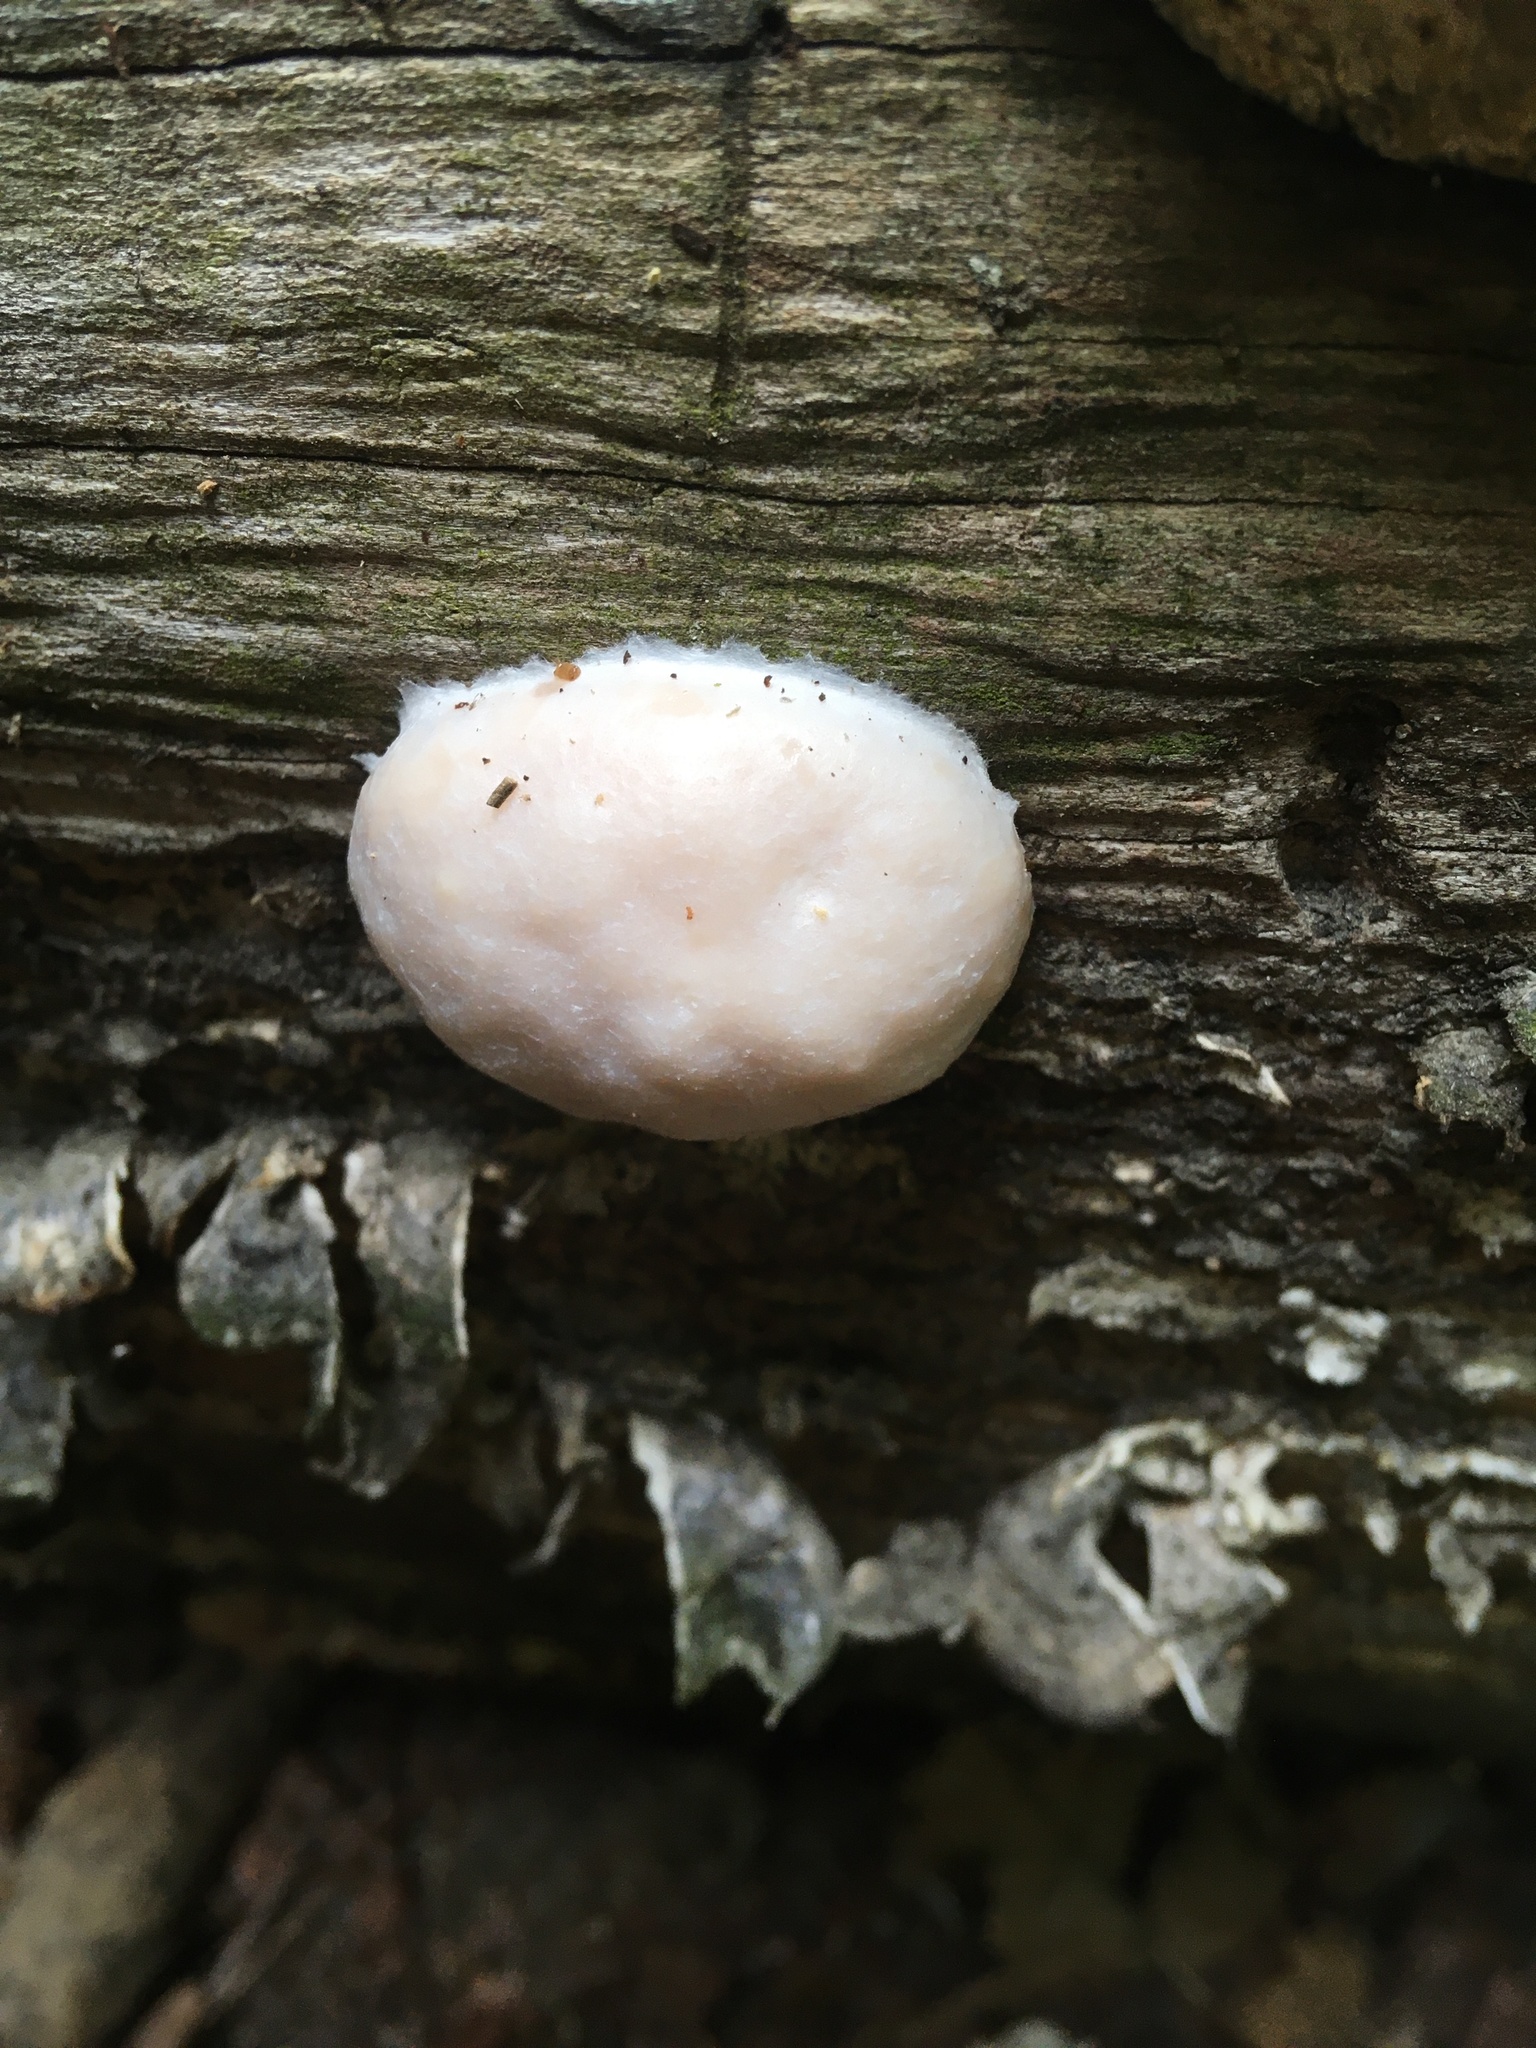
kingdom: Protozoa
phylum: Mycetozoa
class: Myxomycetes
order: Cribrariales
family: Tubiferaceae
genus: Reticularia
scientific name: Reticularia lycoperdon
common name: False puffball
